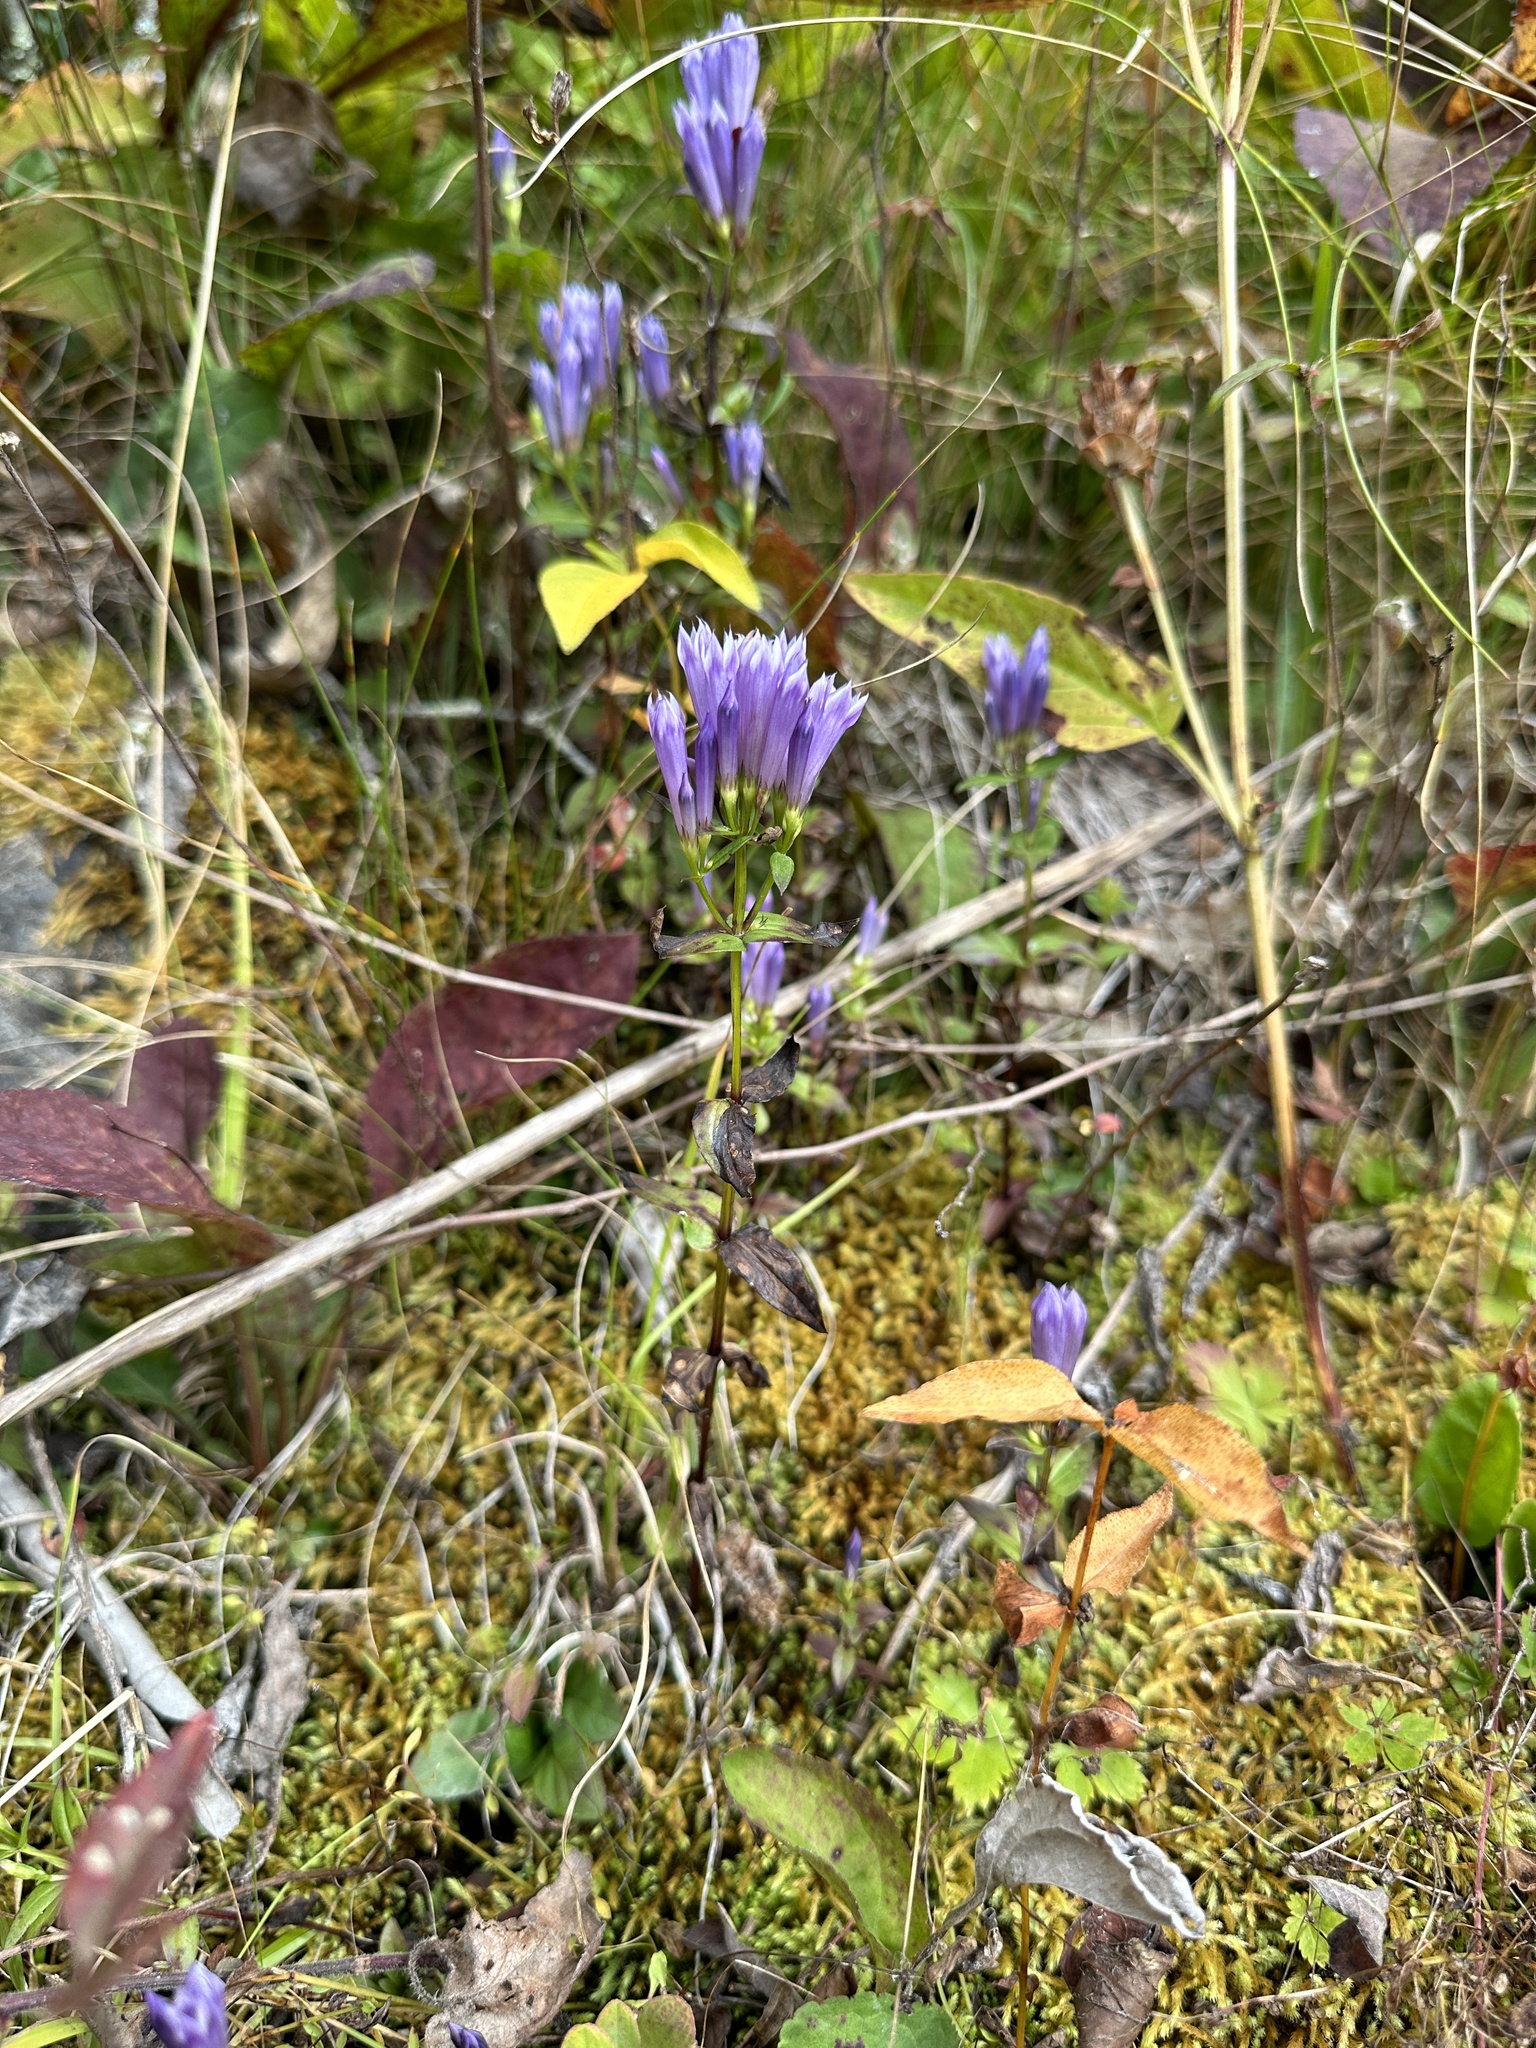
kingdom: Plantae
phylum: Tracheophyta
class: Magnoliopsida
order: Gentianales
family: Gentianaceae
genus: Gentianella
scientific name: Gentianella quinquefolia
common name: Agueweed
